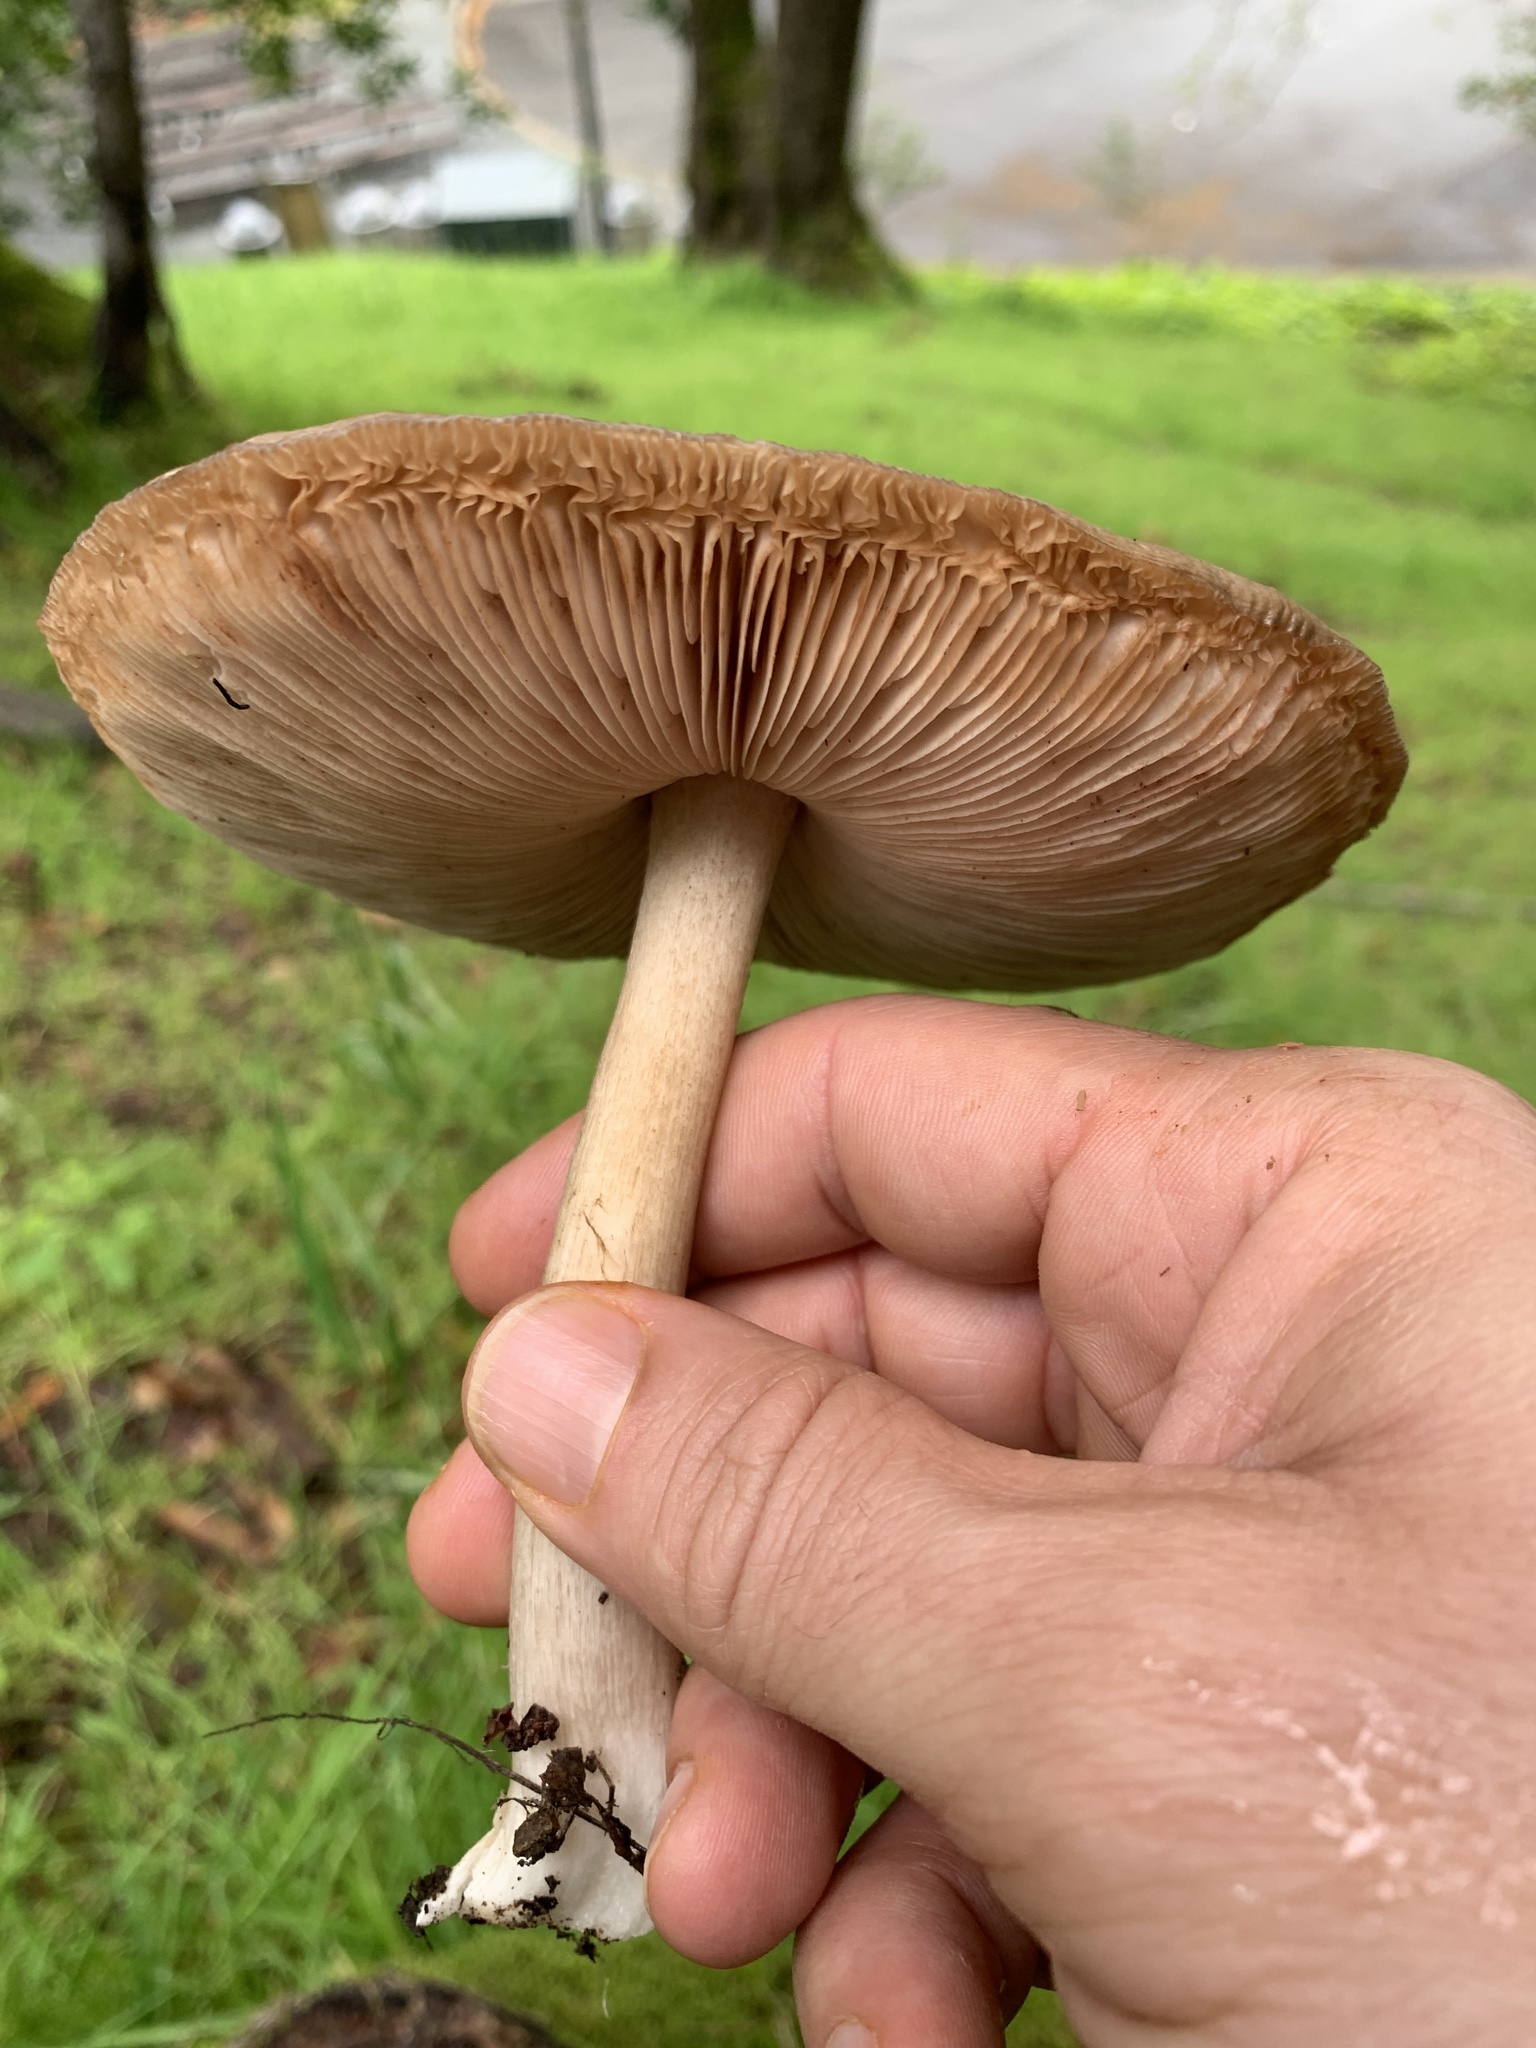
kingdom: Fungi
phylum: Basidiomycota
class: Agaricomycetes
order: Agaricales
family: Pluteaceae
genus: Volvopluteus
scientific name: Volvopluteus gloiocephalus
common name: Stubble rosegill
